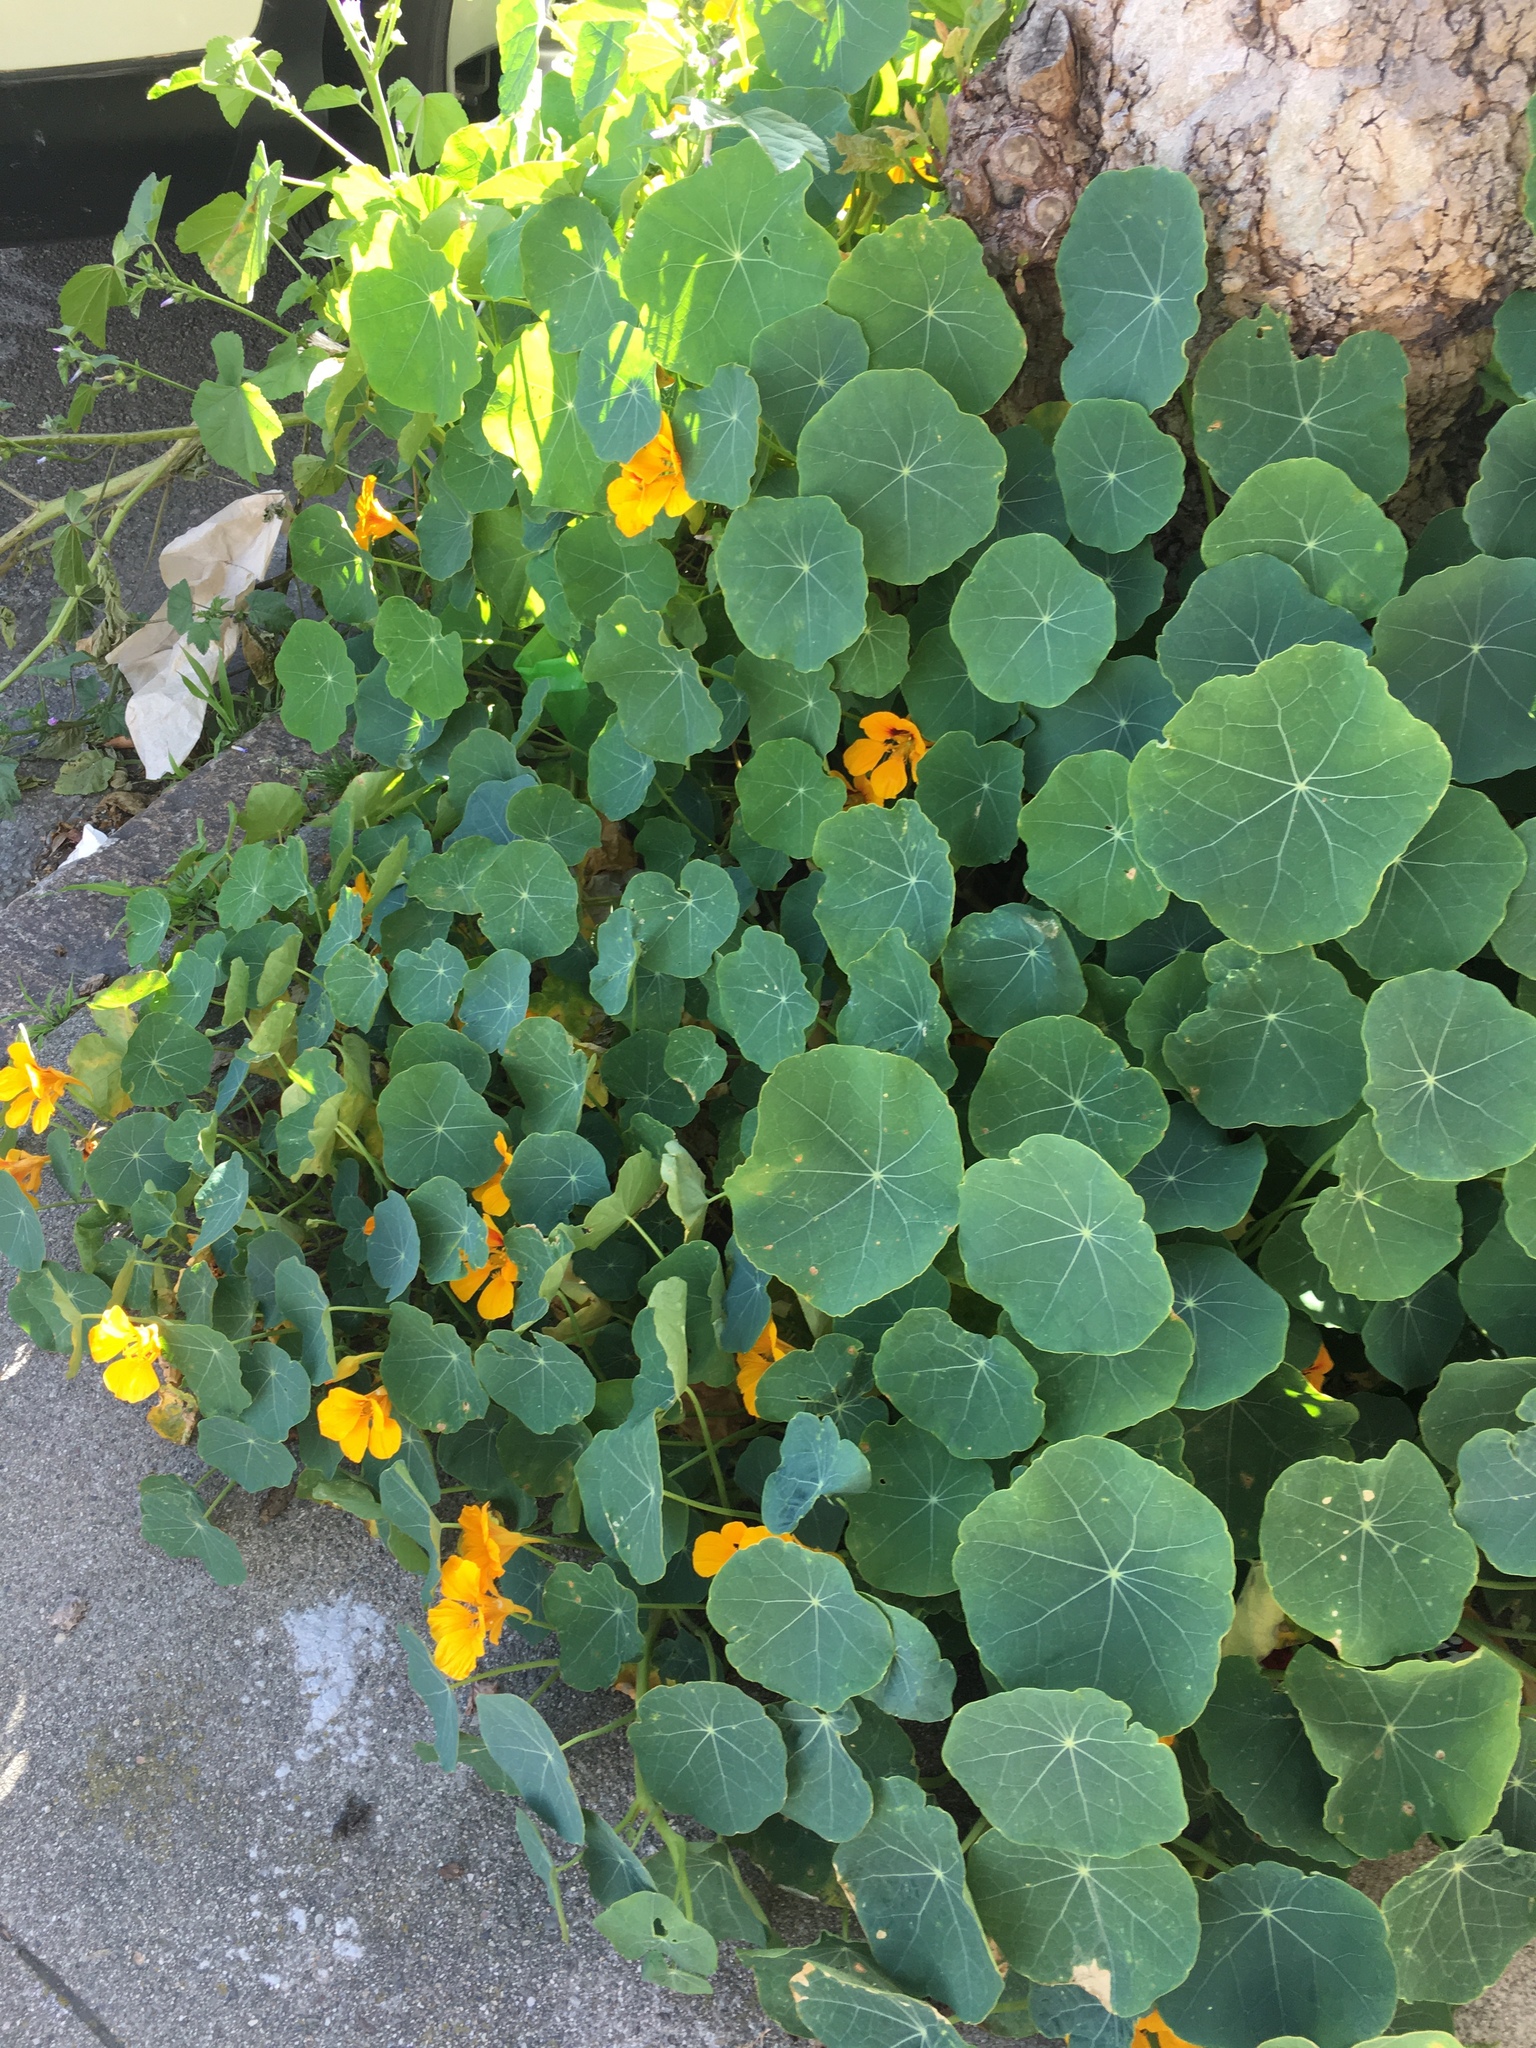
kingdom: Plantae
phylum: Tracheophyta
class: Magnoliopsida
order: Brassicales
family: Tropaeolaceae
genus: Tropaeolum
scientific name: Tropaeolum majus
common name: Nasturtium
